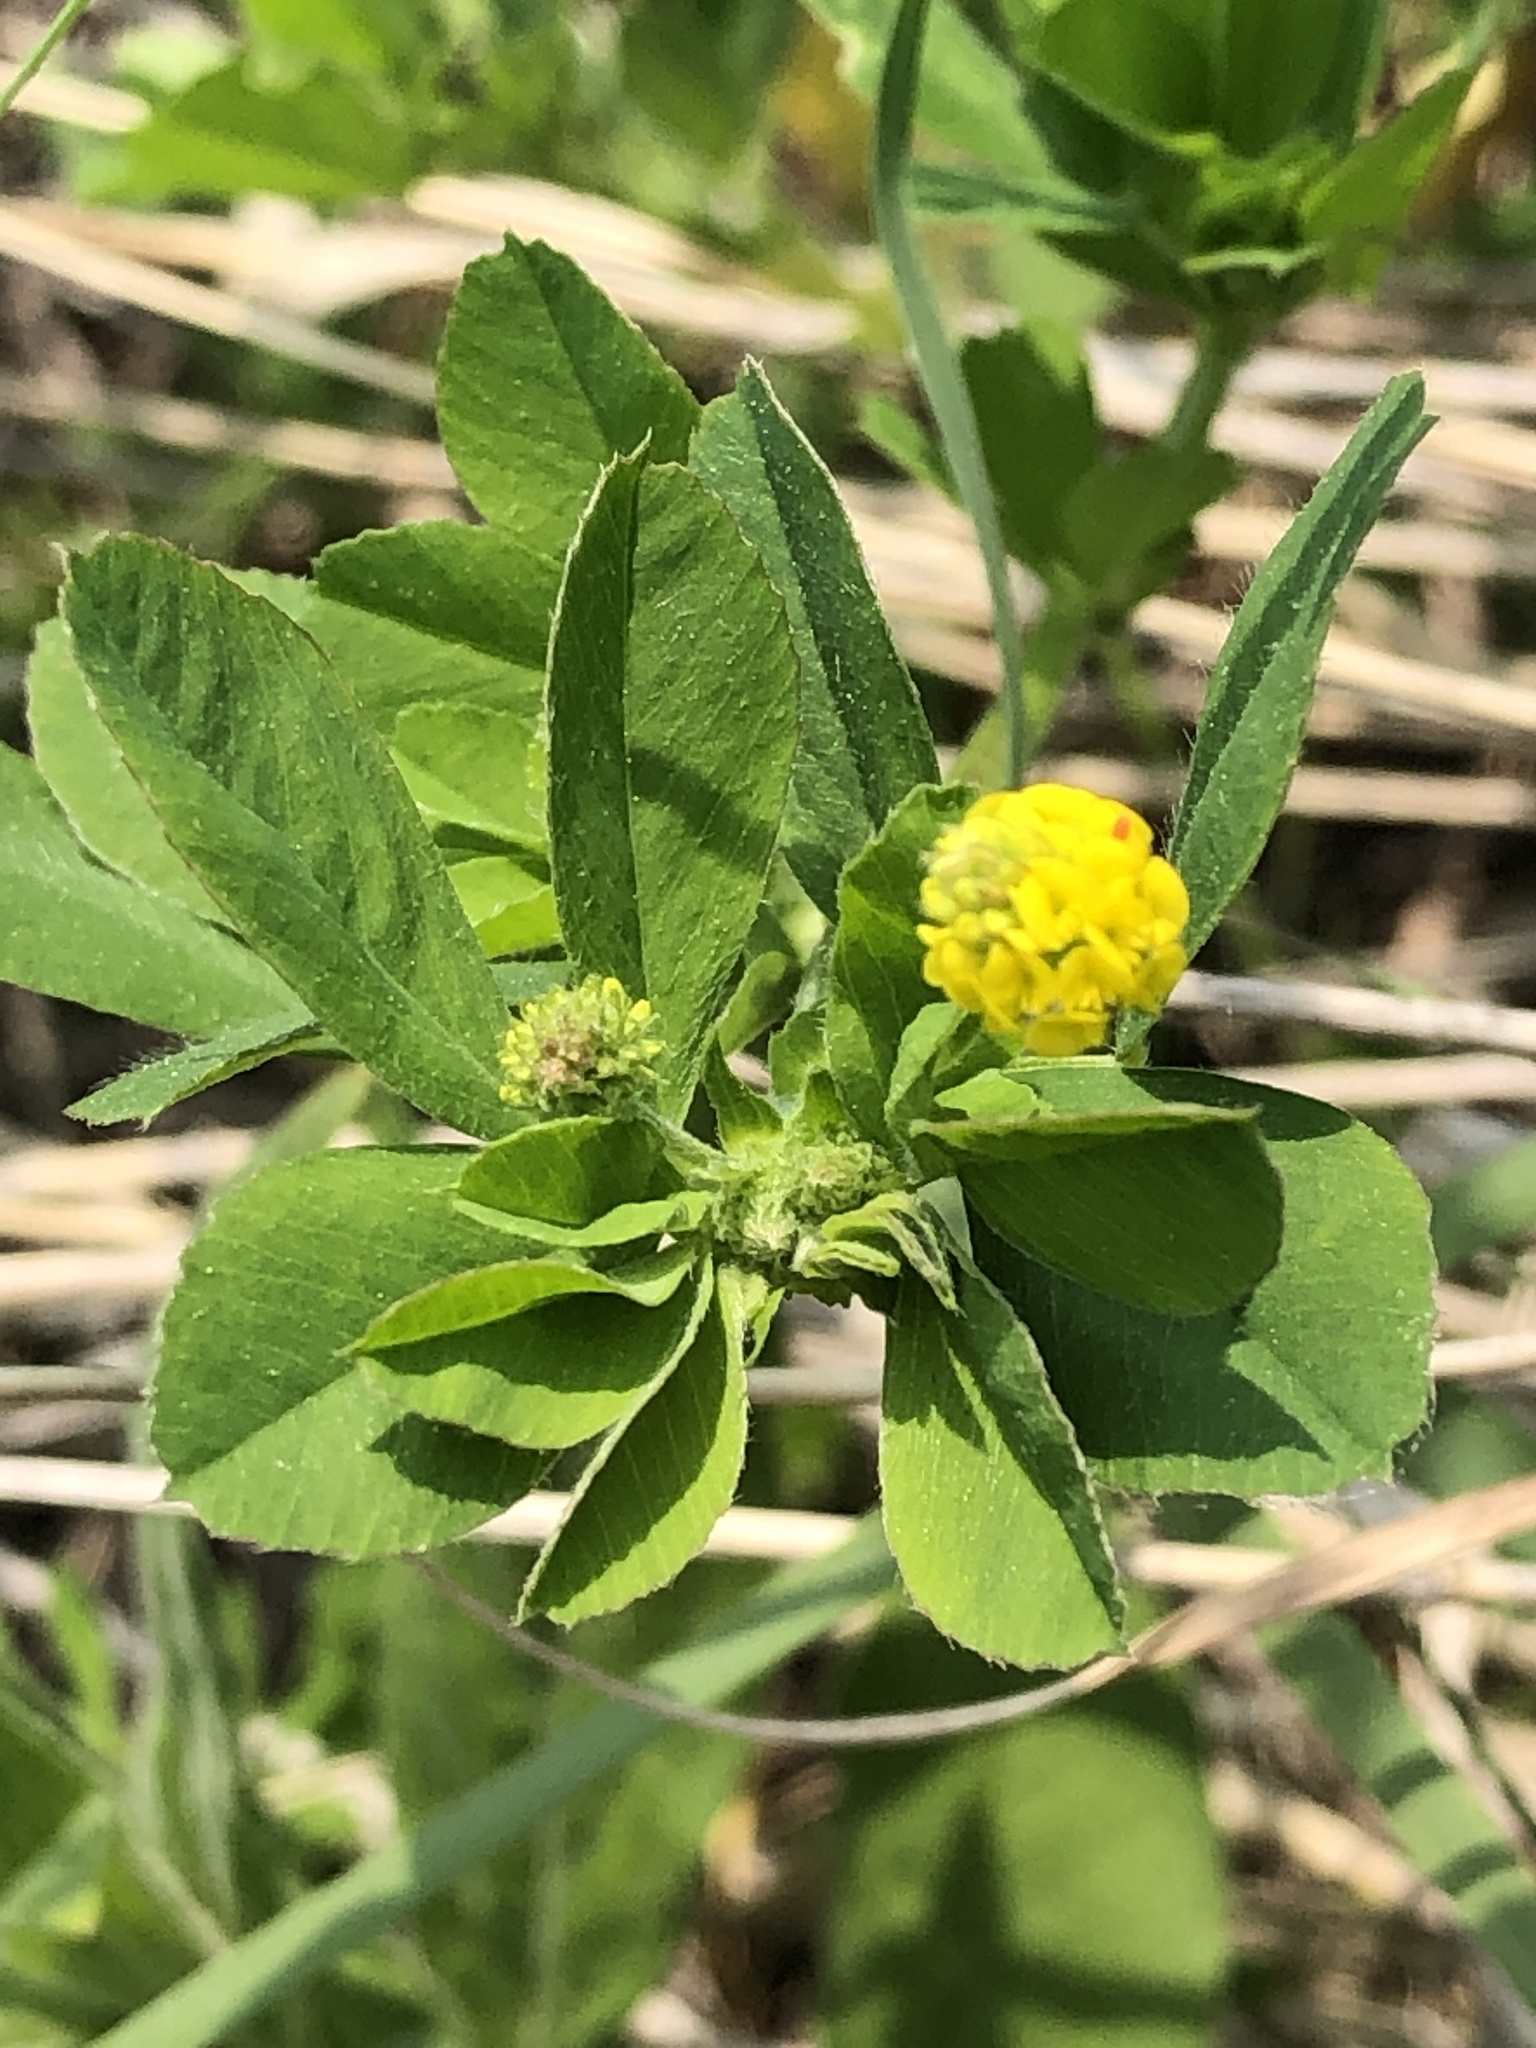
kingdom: Plantae
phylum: Tracheophyta
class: Magnoliopsida
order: Fabales
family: Fabaceae
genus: Medicago
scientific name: Medicago lupulina
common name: Black medick
